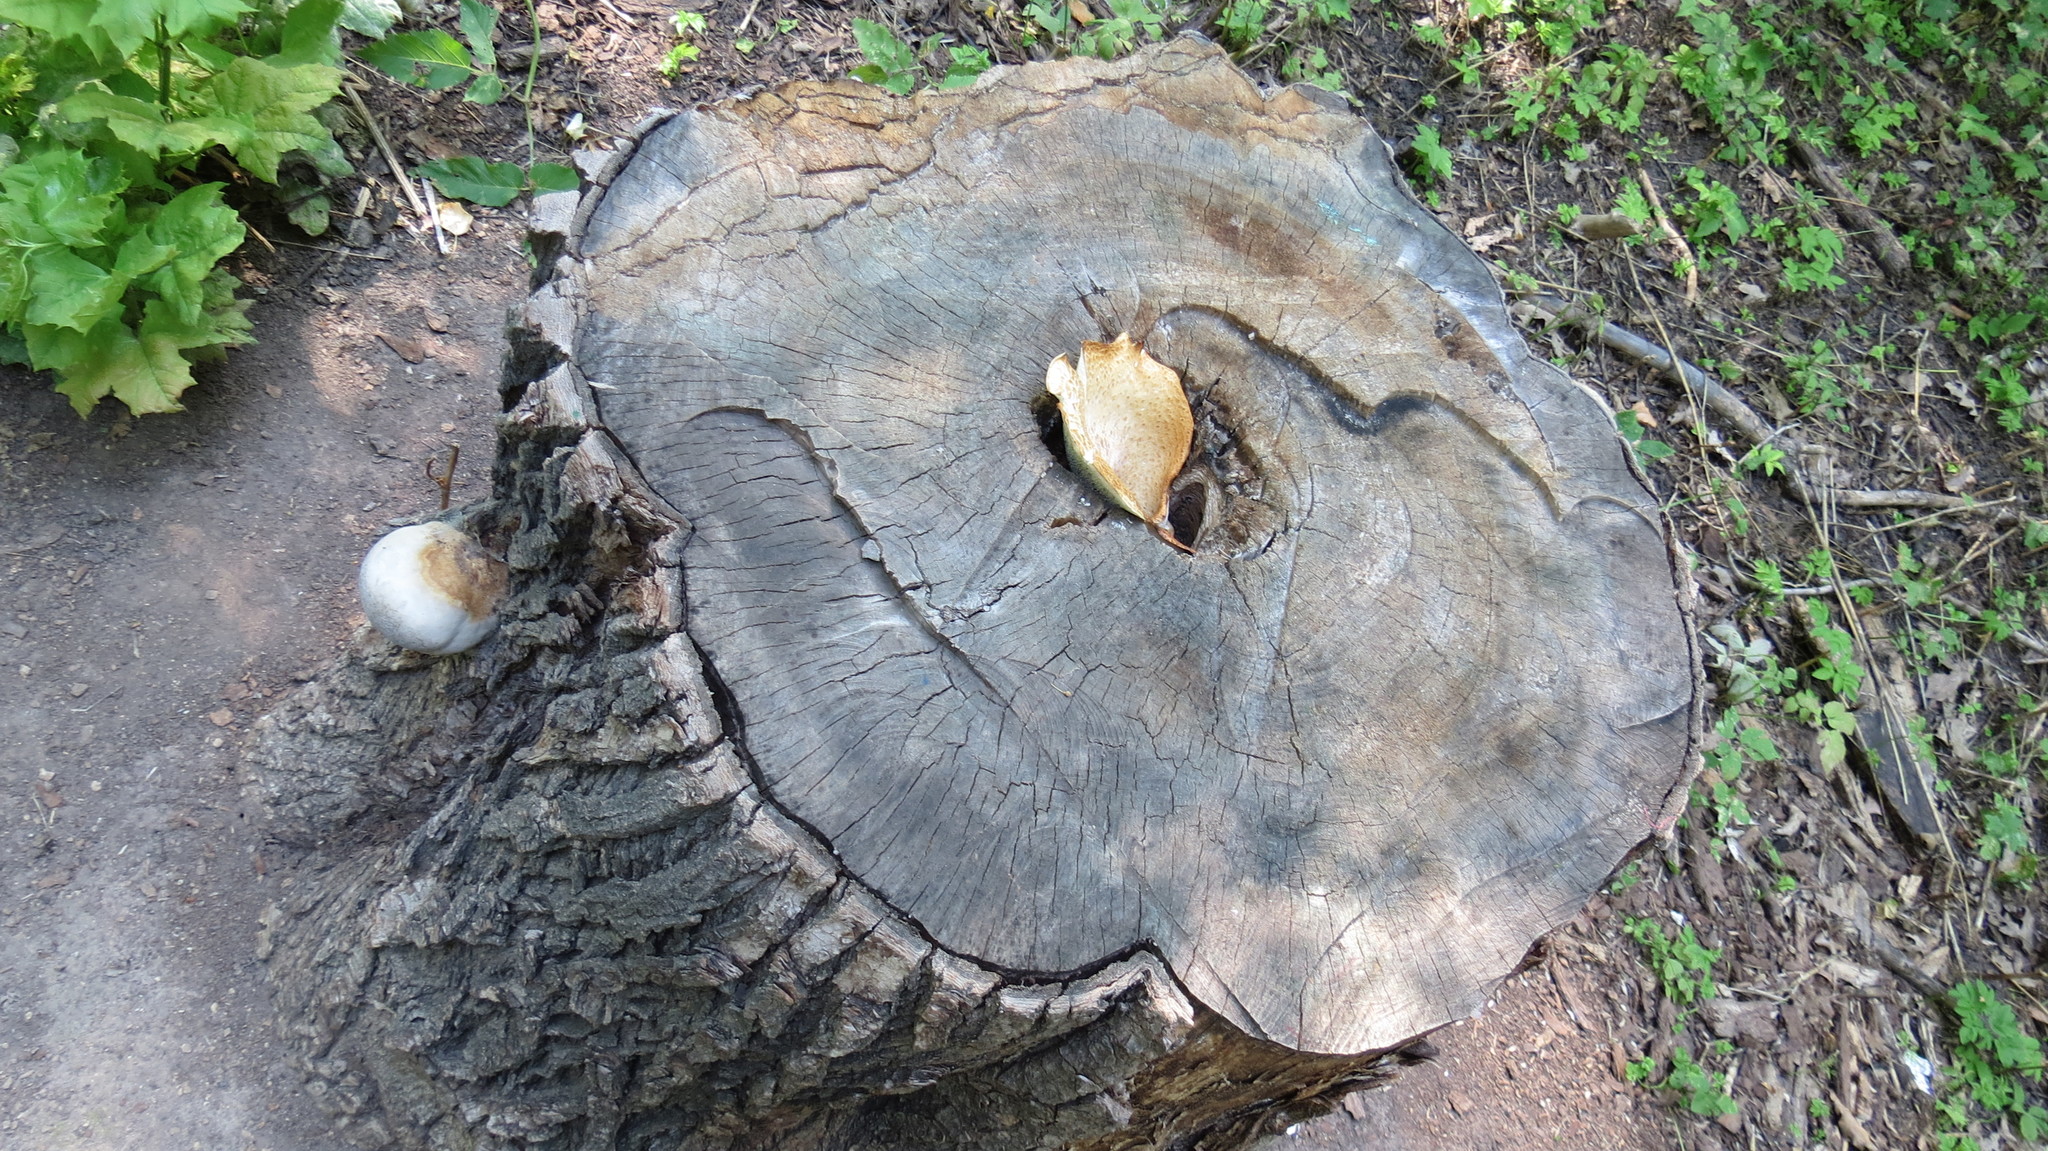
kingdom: Fungi
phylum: Basidiomycota
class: Agaricomycetes
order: Polyporales
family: Polyporaceae
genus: Cerioporus
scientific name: Cerioporus squamosus
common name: Dryad's saddle
